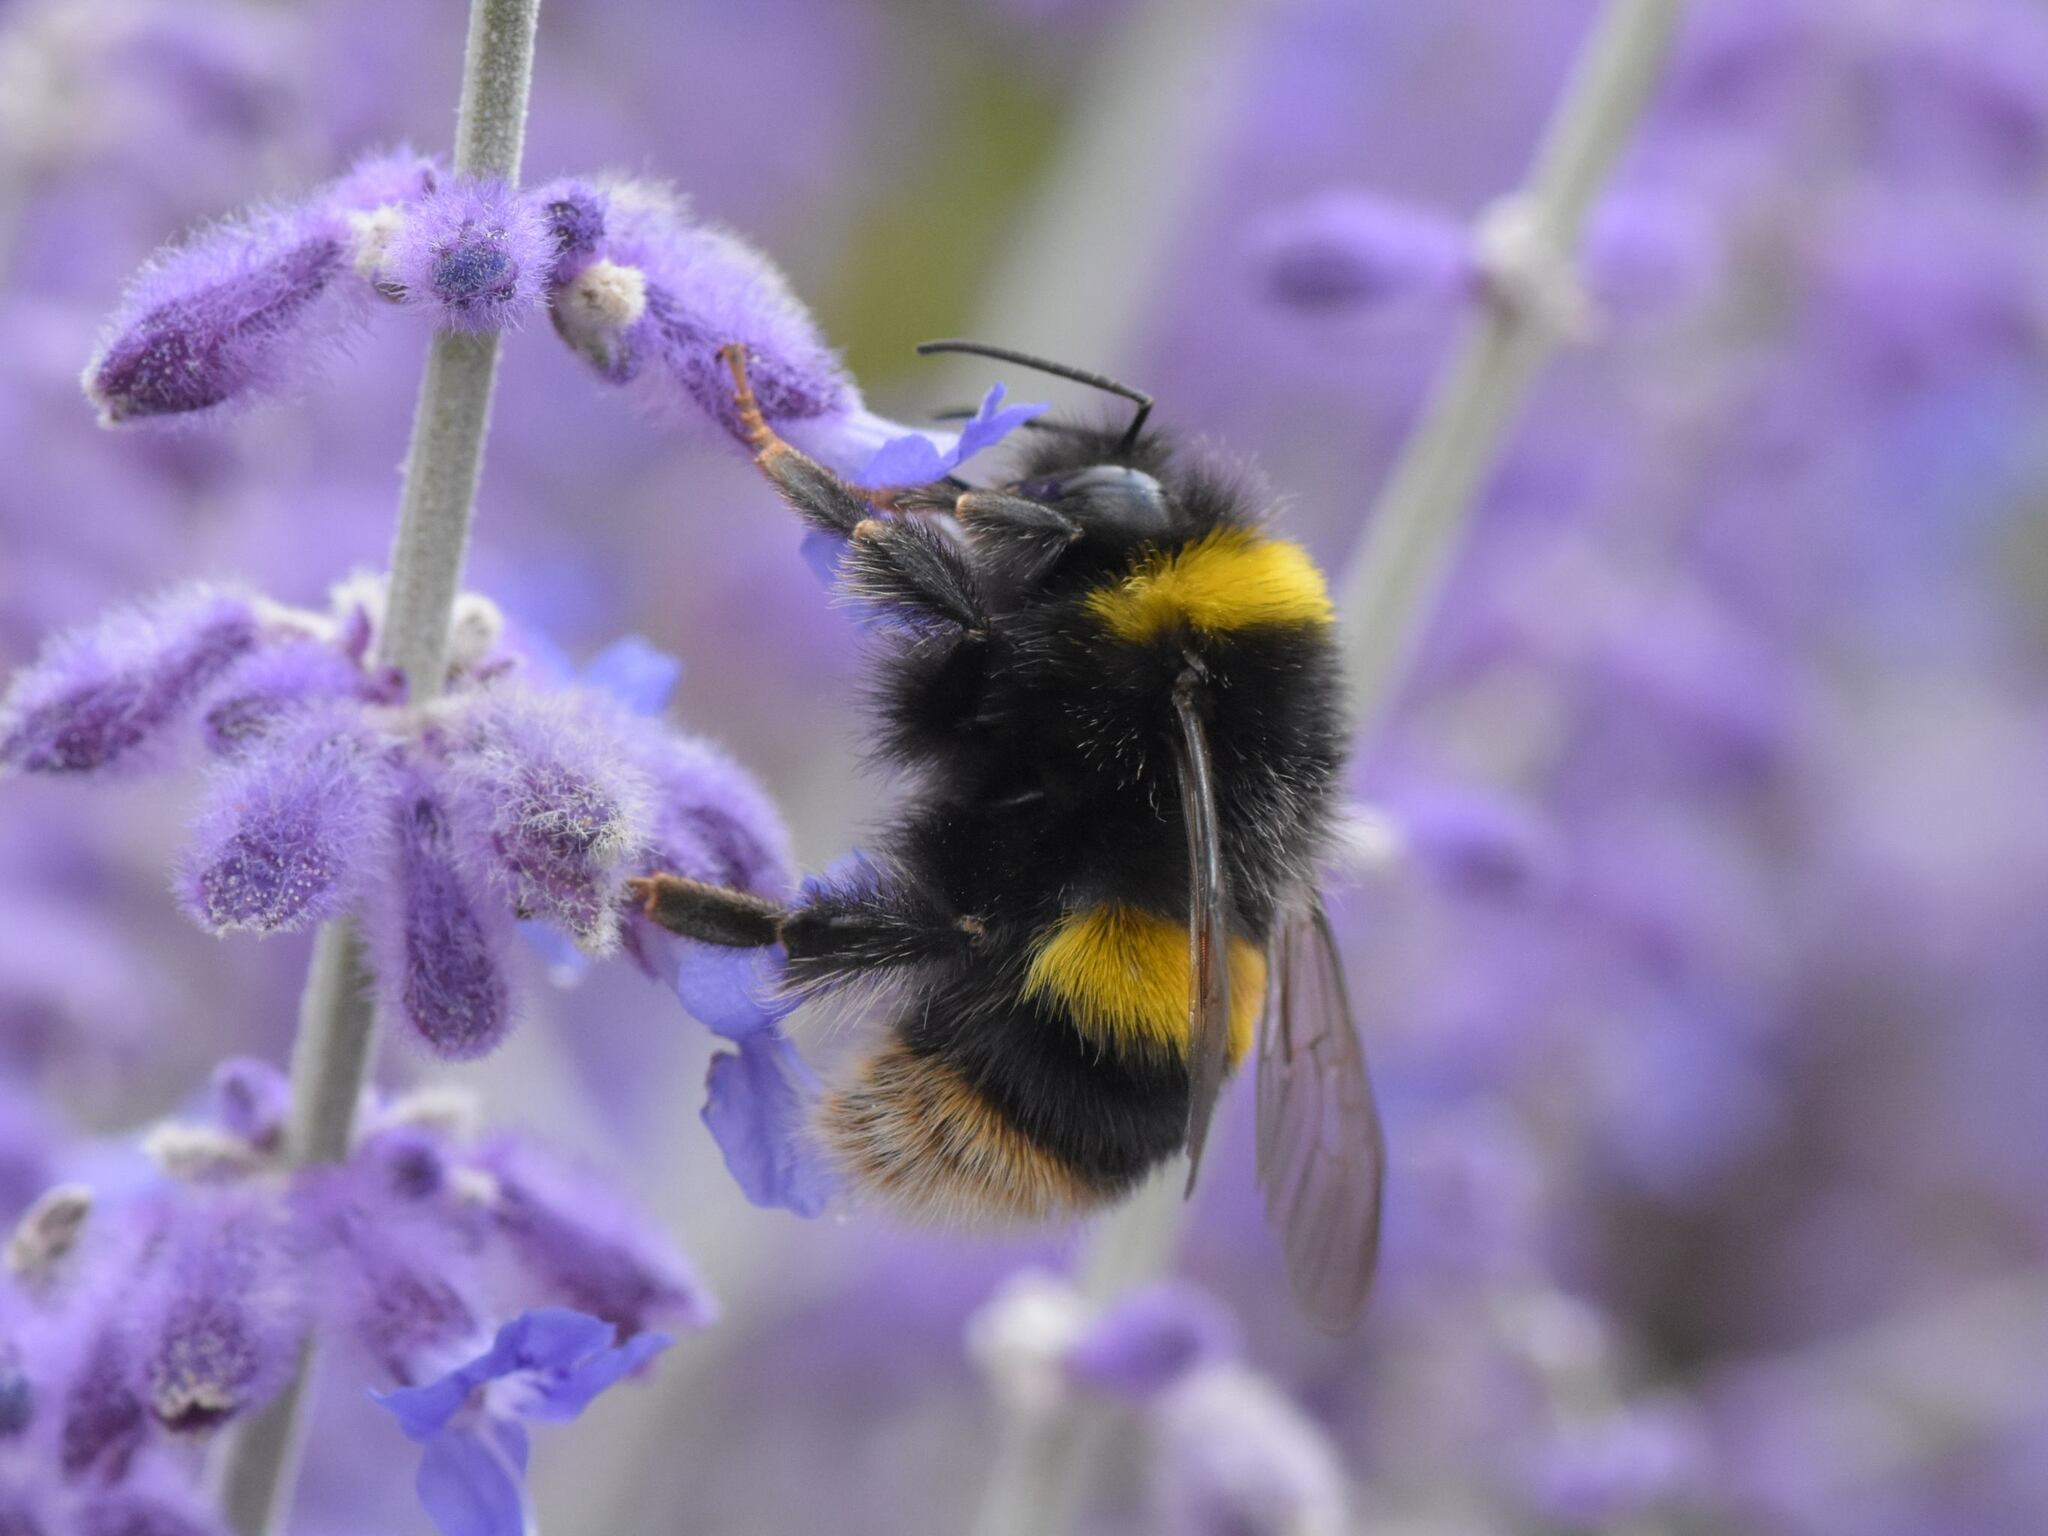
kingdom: Animalia
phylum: Arthropoda
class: Insecta
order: Hymenoptera
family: Apidae
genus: Bombus
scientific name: Bombus terrestris
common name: Buff-tailed bumblebee
